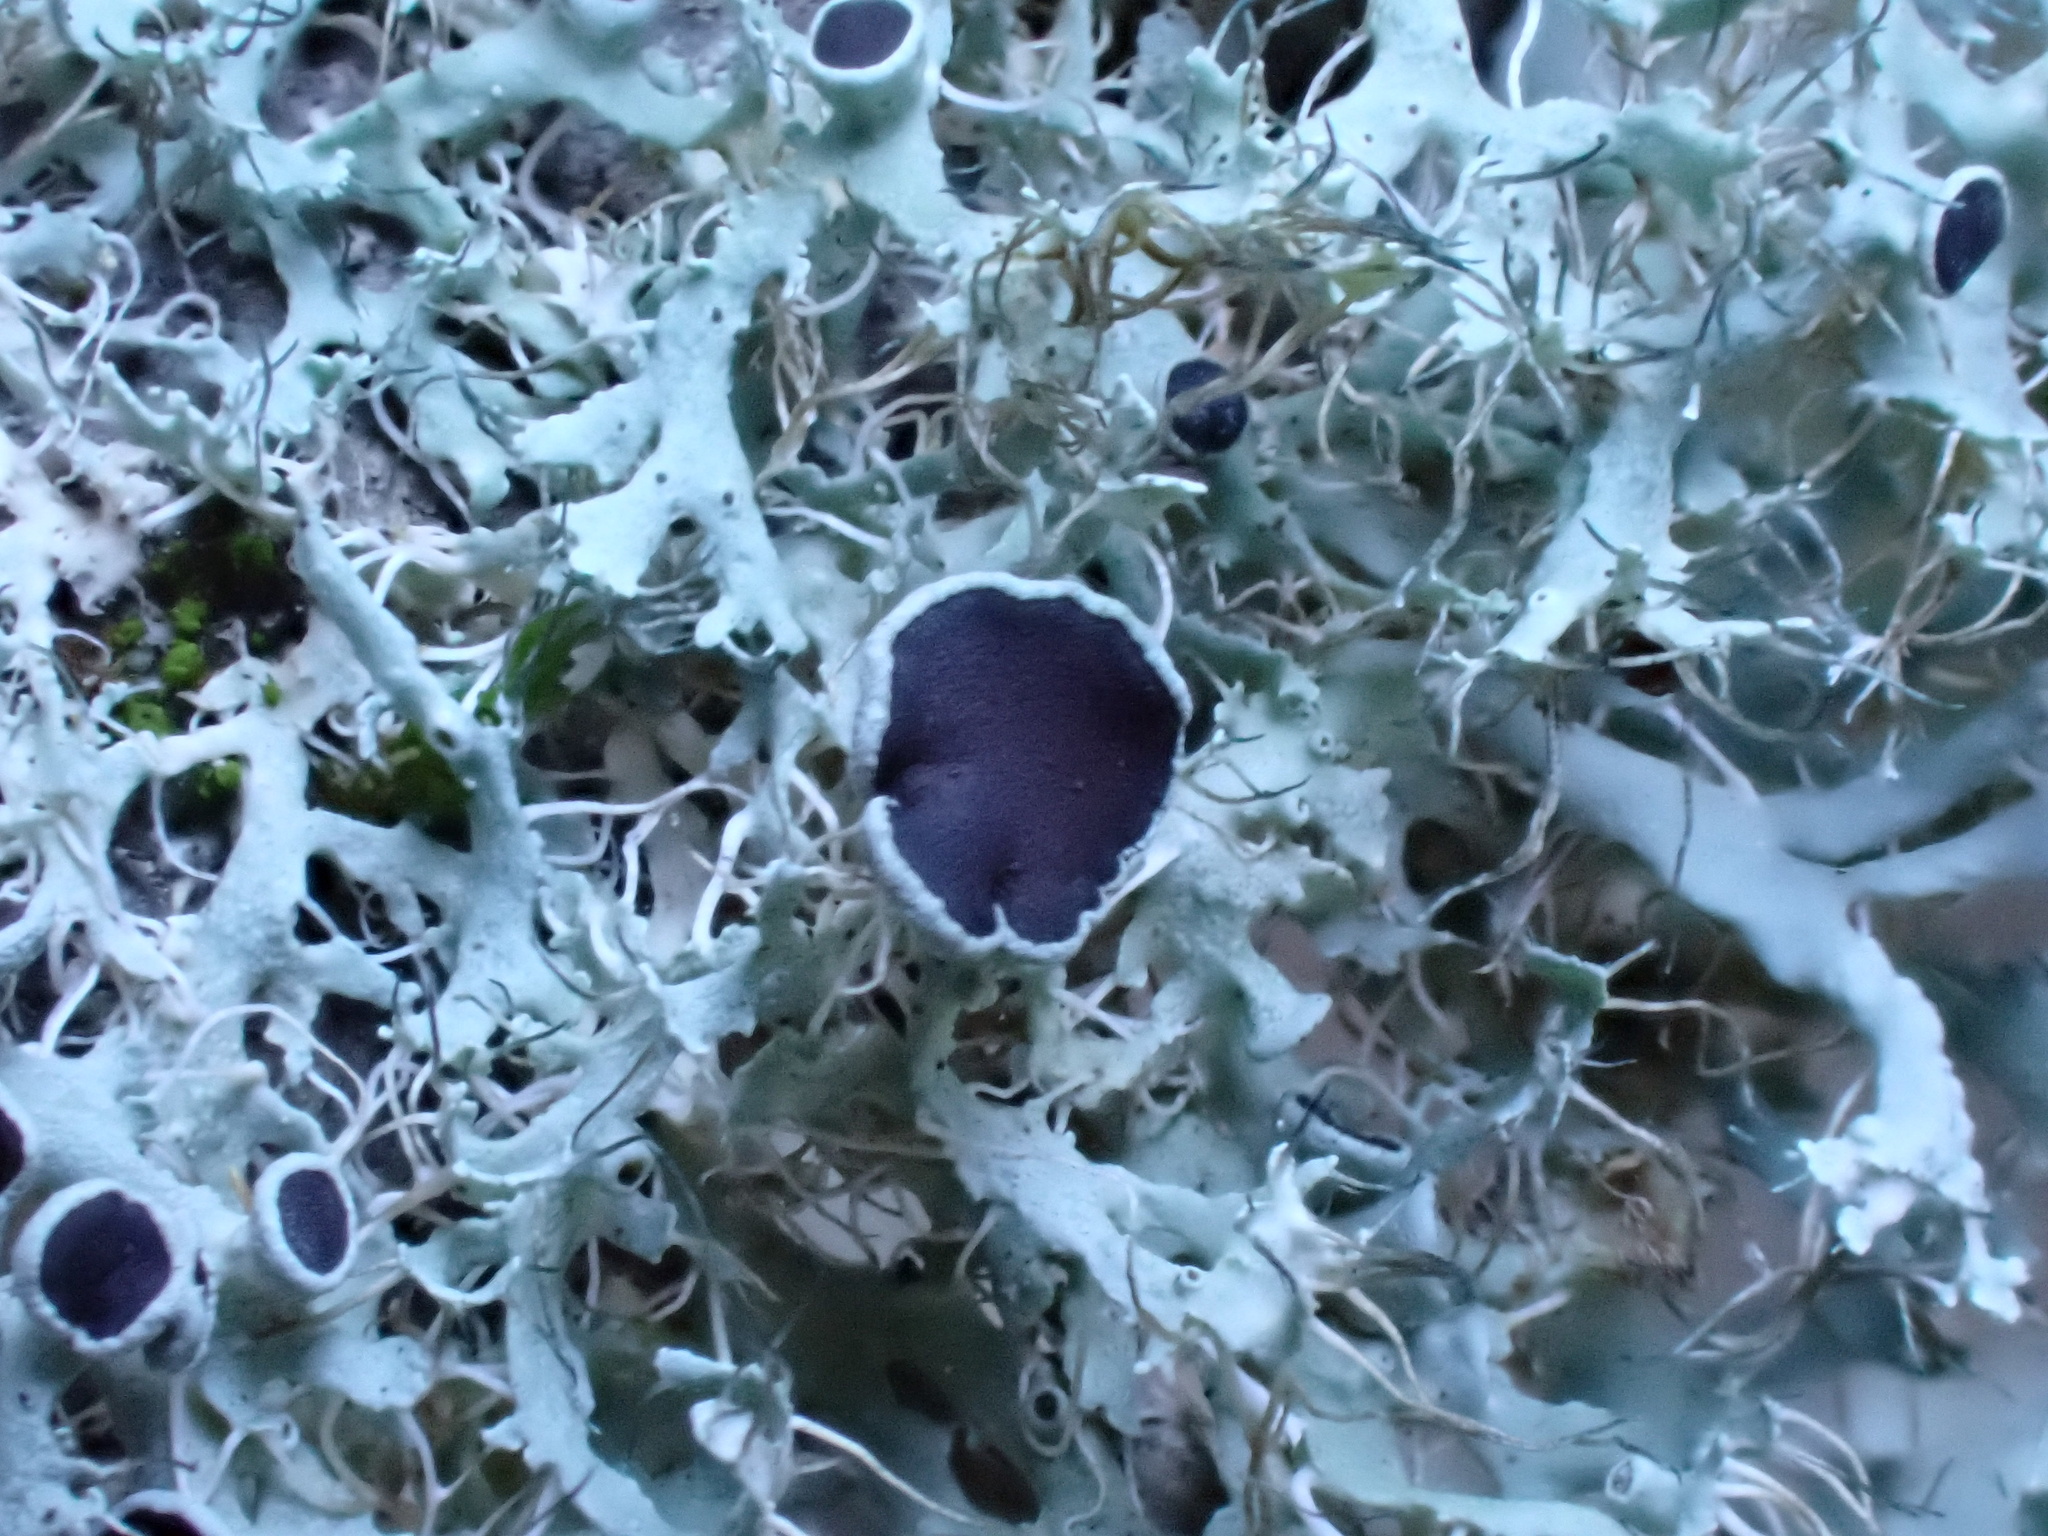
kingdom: Fungi
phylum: Ascomycota
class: Lecanoromycetes
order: Caliciales
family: Physciaceae
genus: Physcia
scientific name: Physcia leptalea
